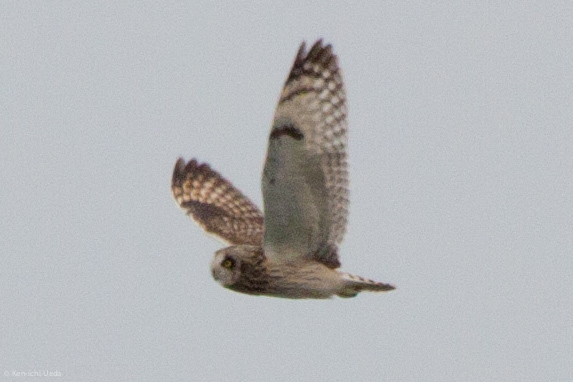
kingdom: Animalia
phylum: Chordata
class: Aves
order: Strigiformes
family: Strigidae
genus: Asio
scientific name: Asio flammeus
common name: Short-eared owl
